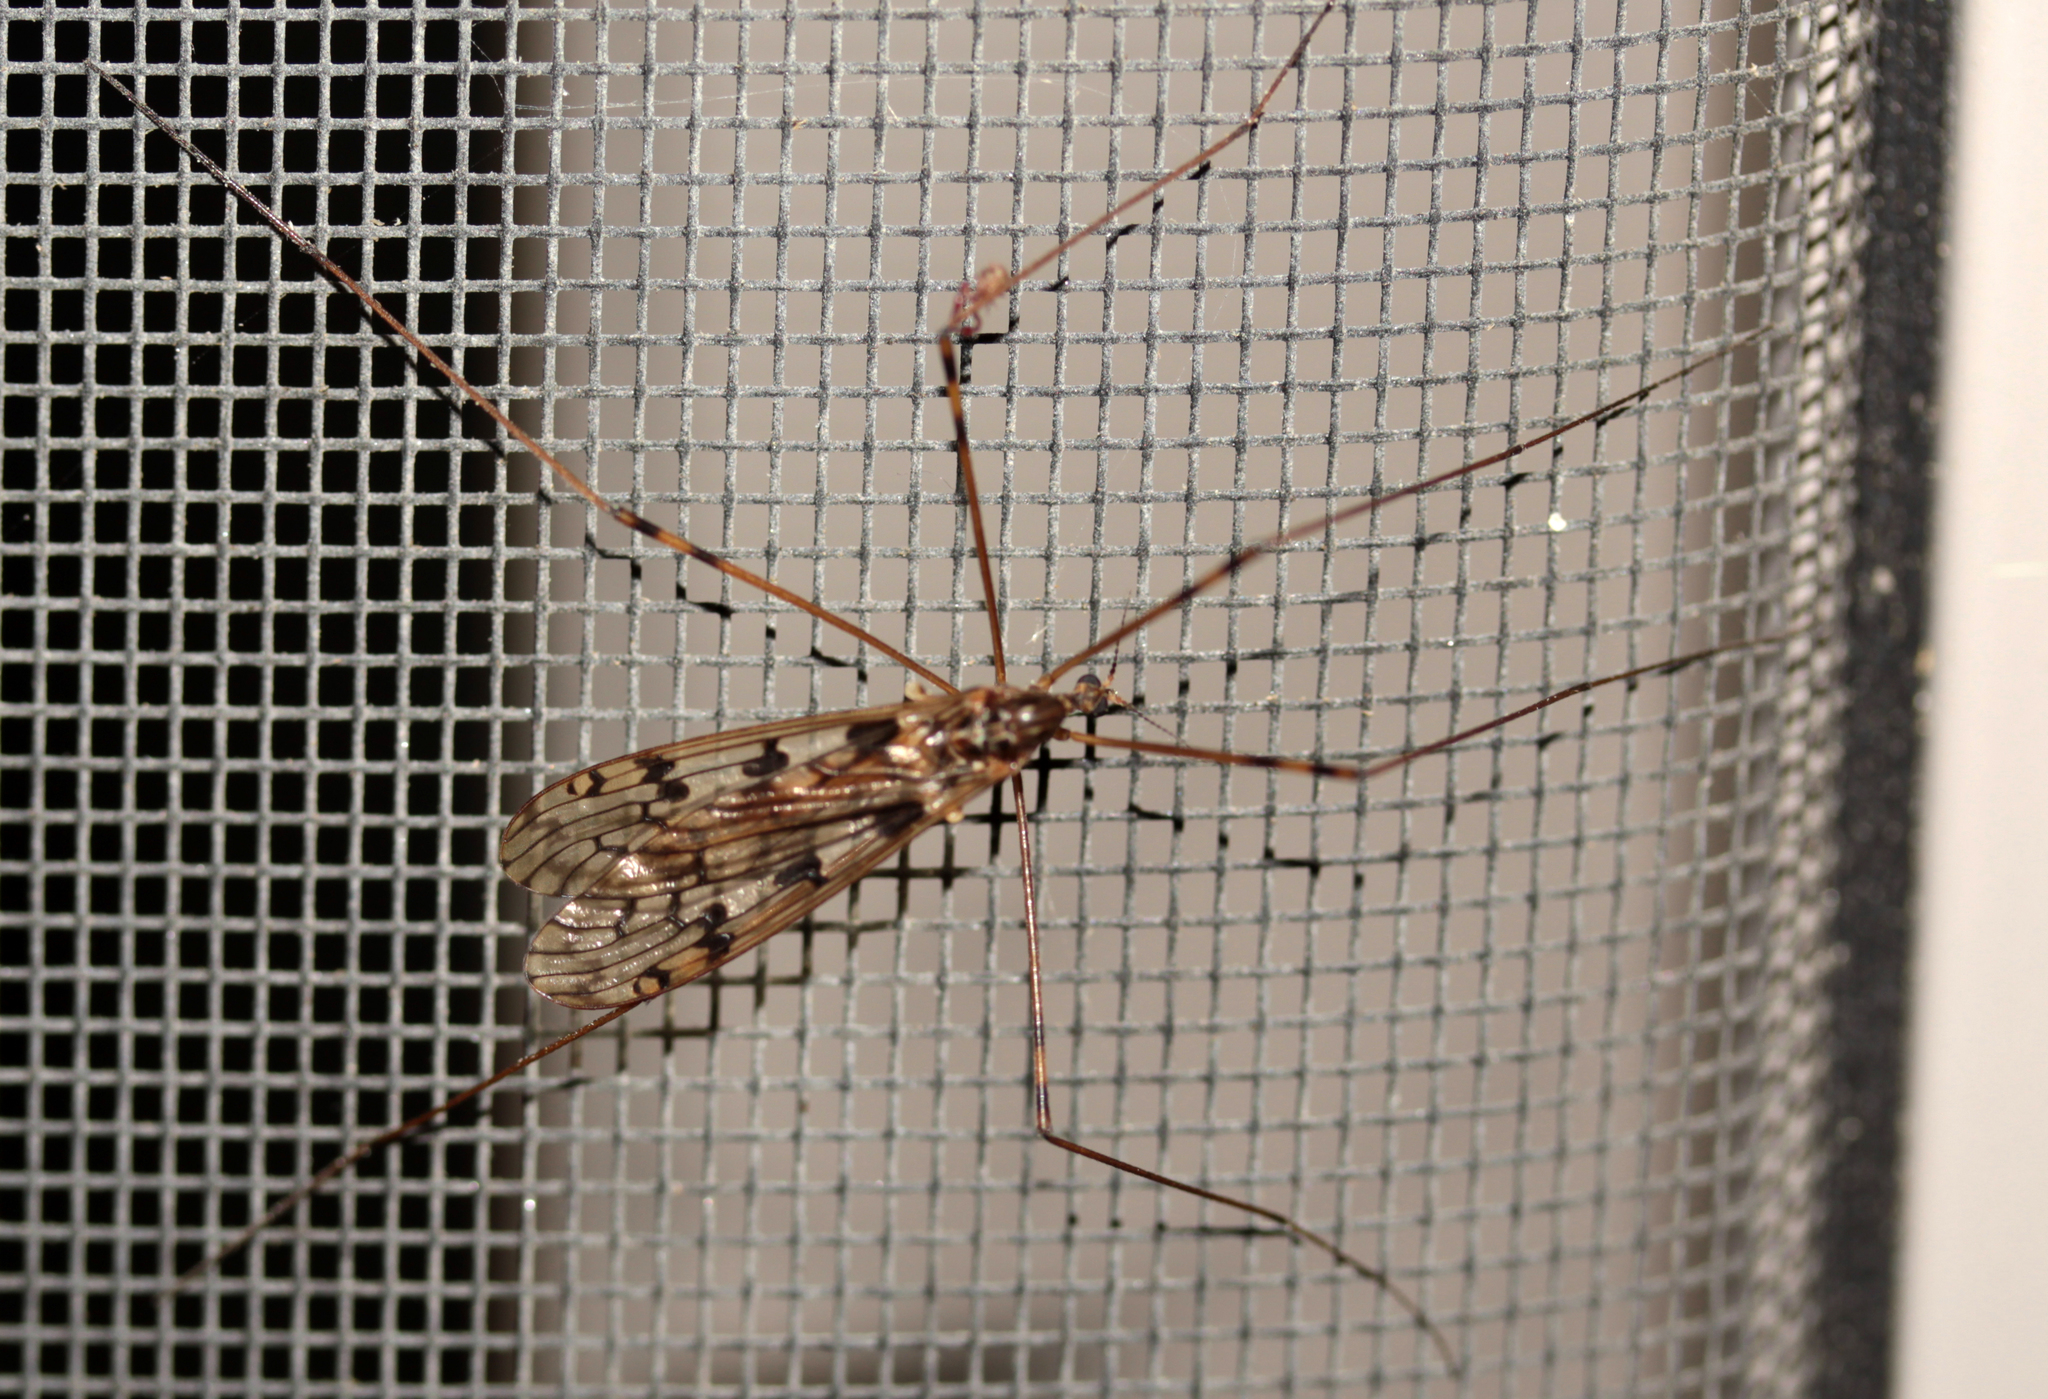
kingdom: Animalia
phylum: Arthropoda
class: Insecta
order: Diptera
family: Limoniidae
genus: Limonia
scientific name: Limonia cinctipes
